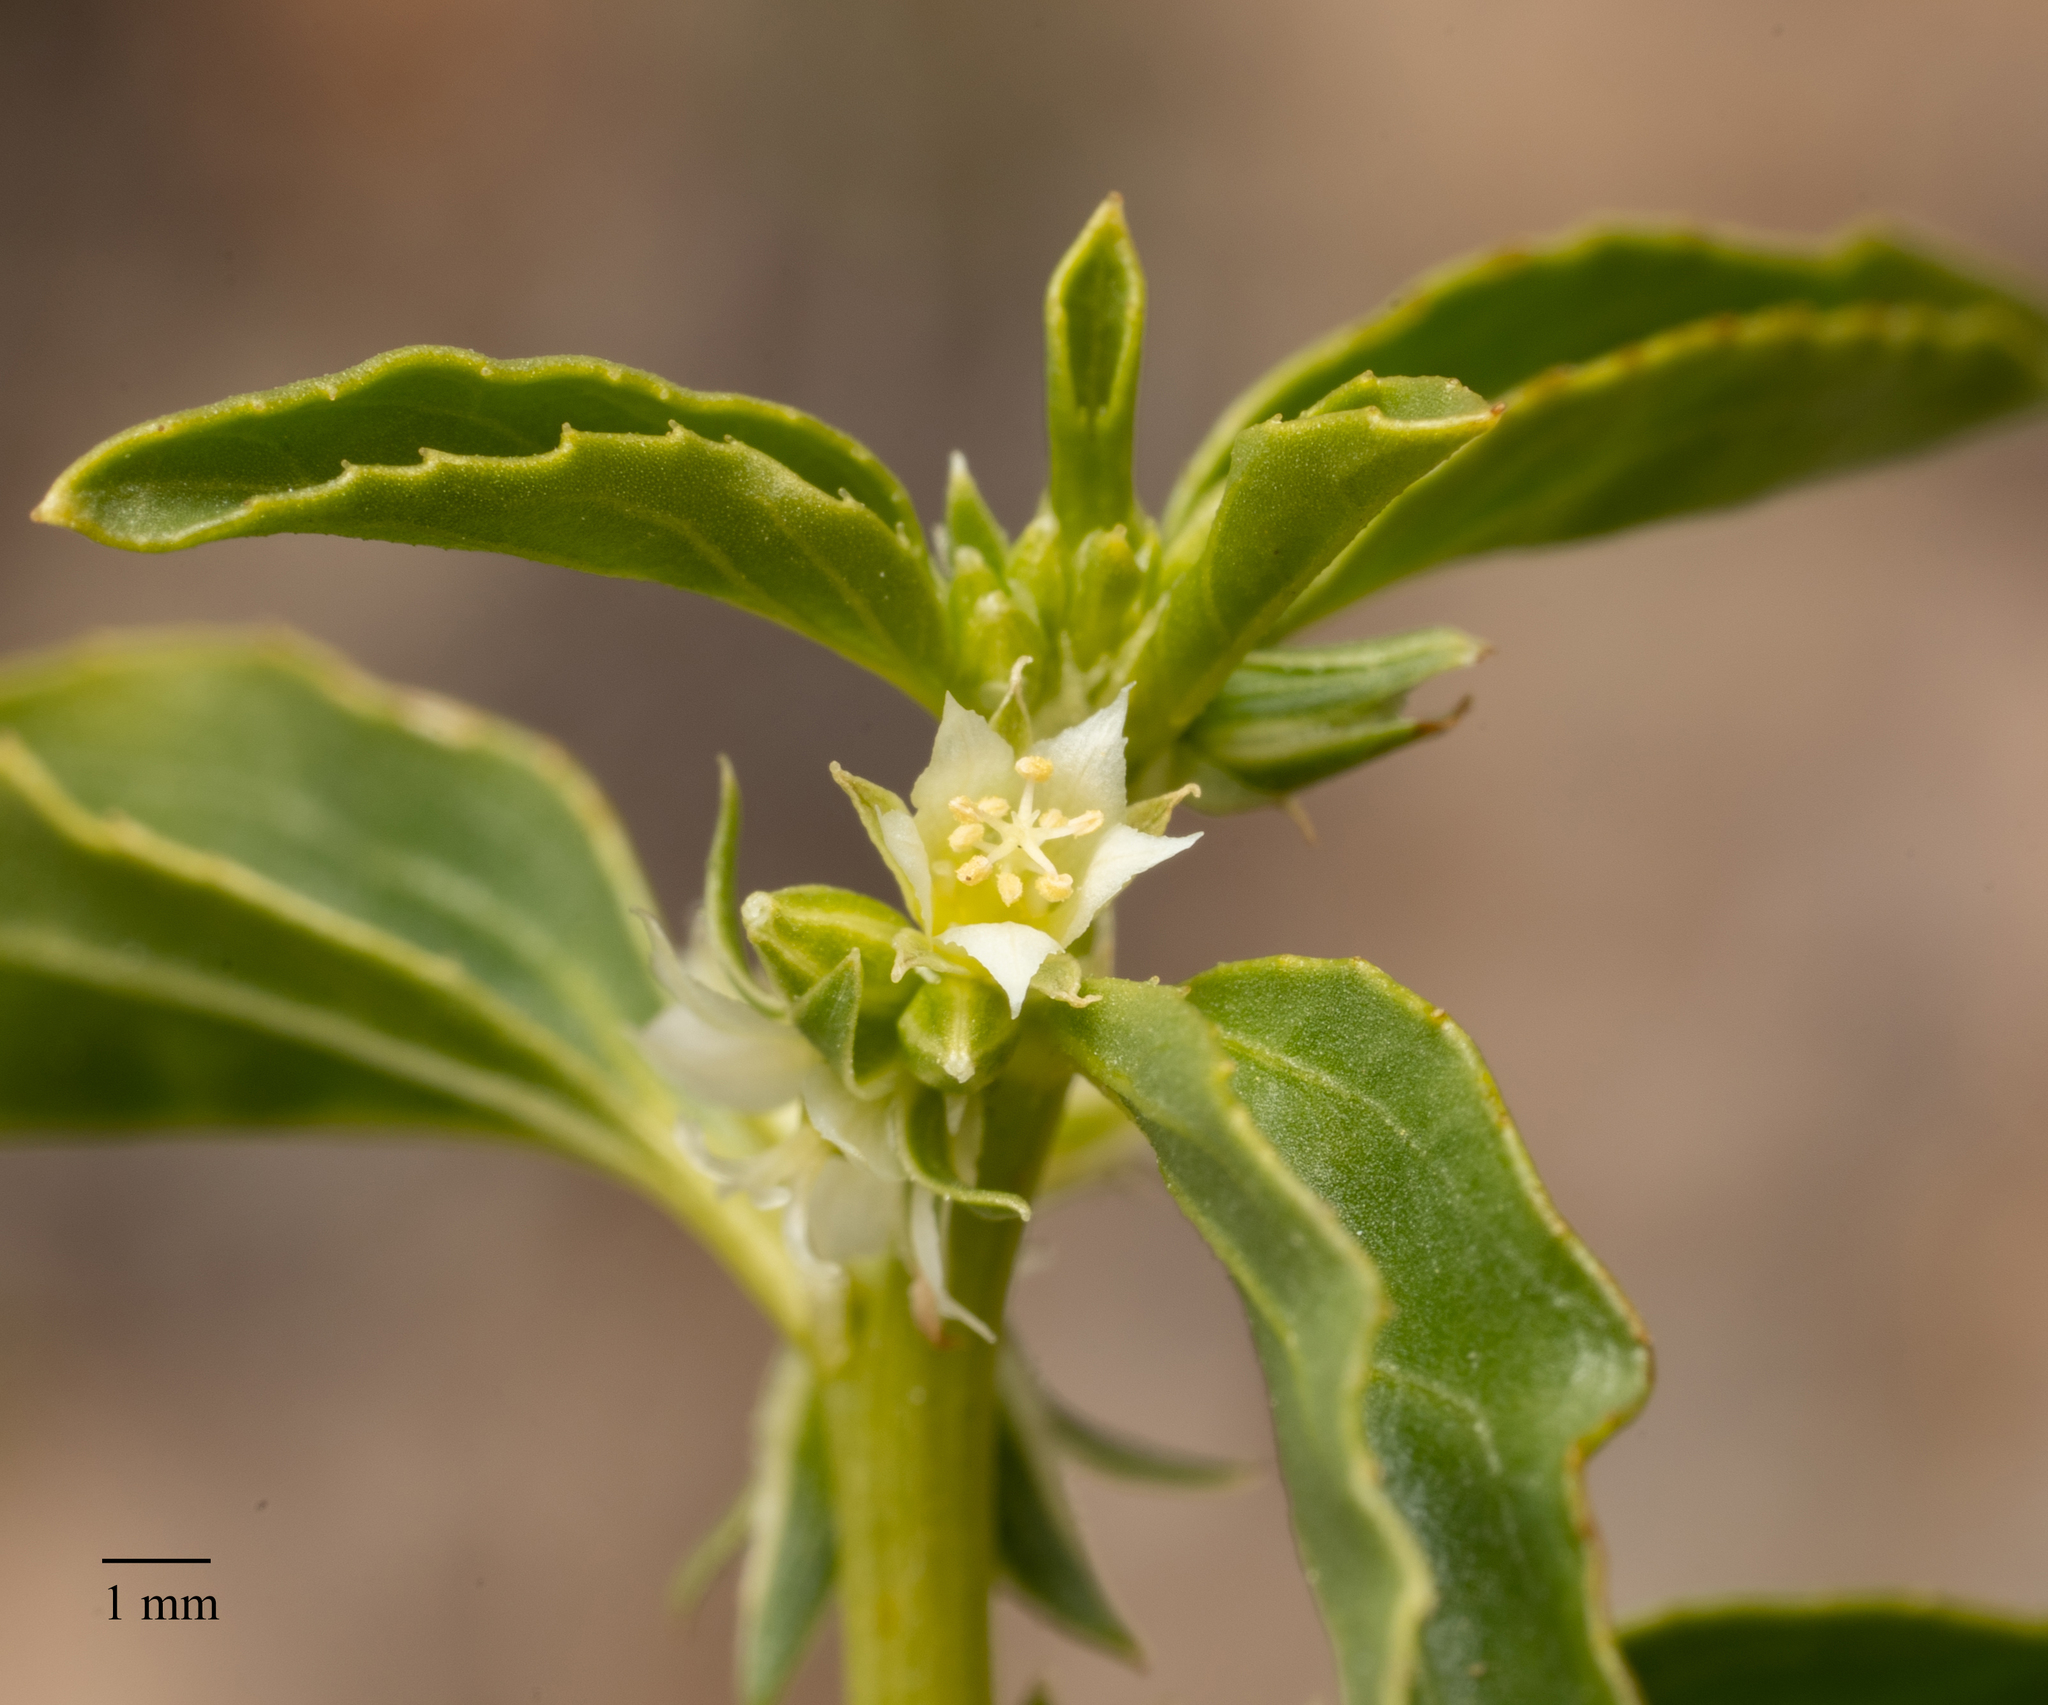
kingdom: Plantae
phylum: Tracheophyta
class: Magnoliopsida
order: Malpighiales
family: Euphorbiaceae
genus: Ditaxis
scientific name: Ditaxis serrata
